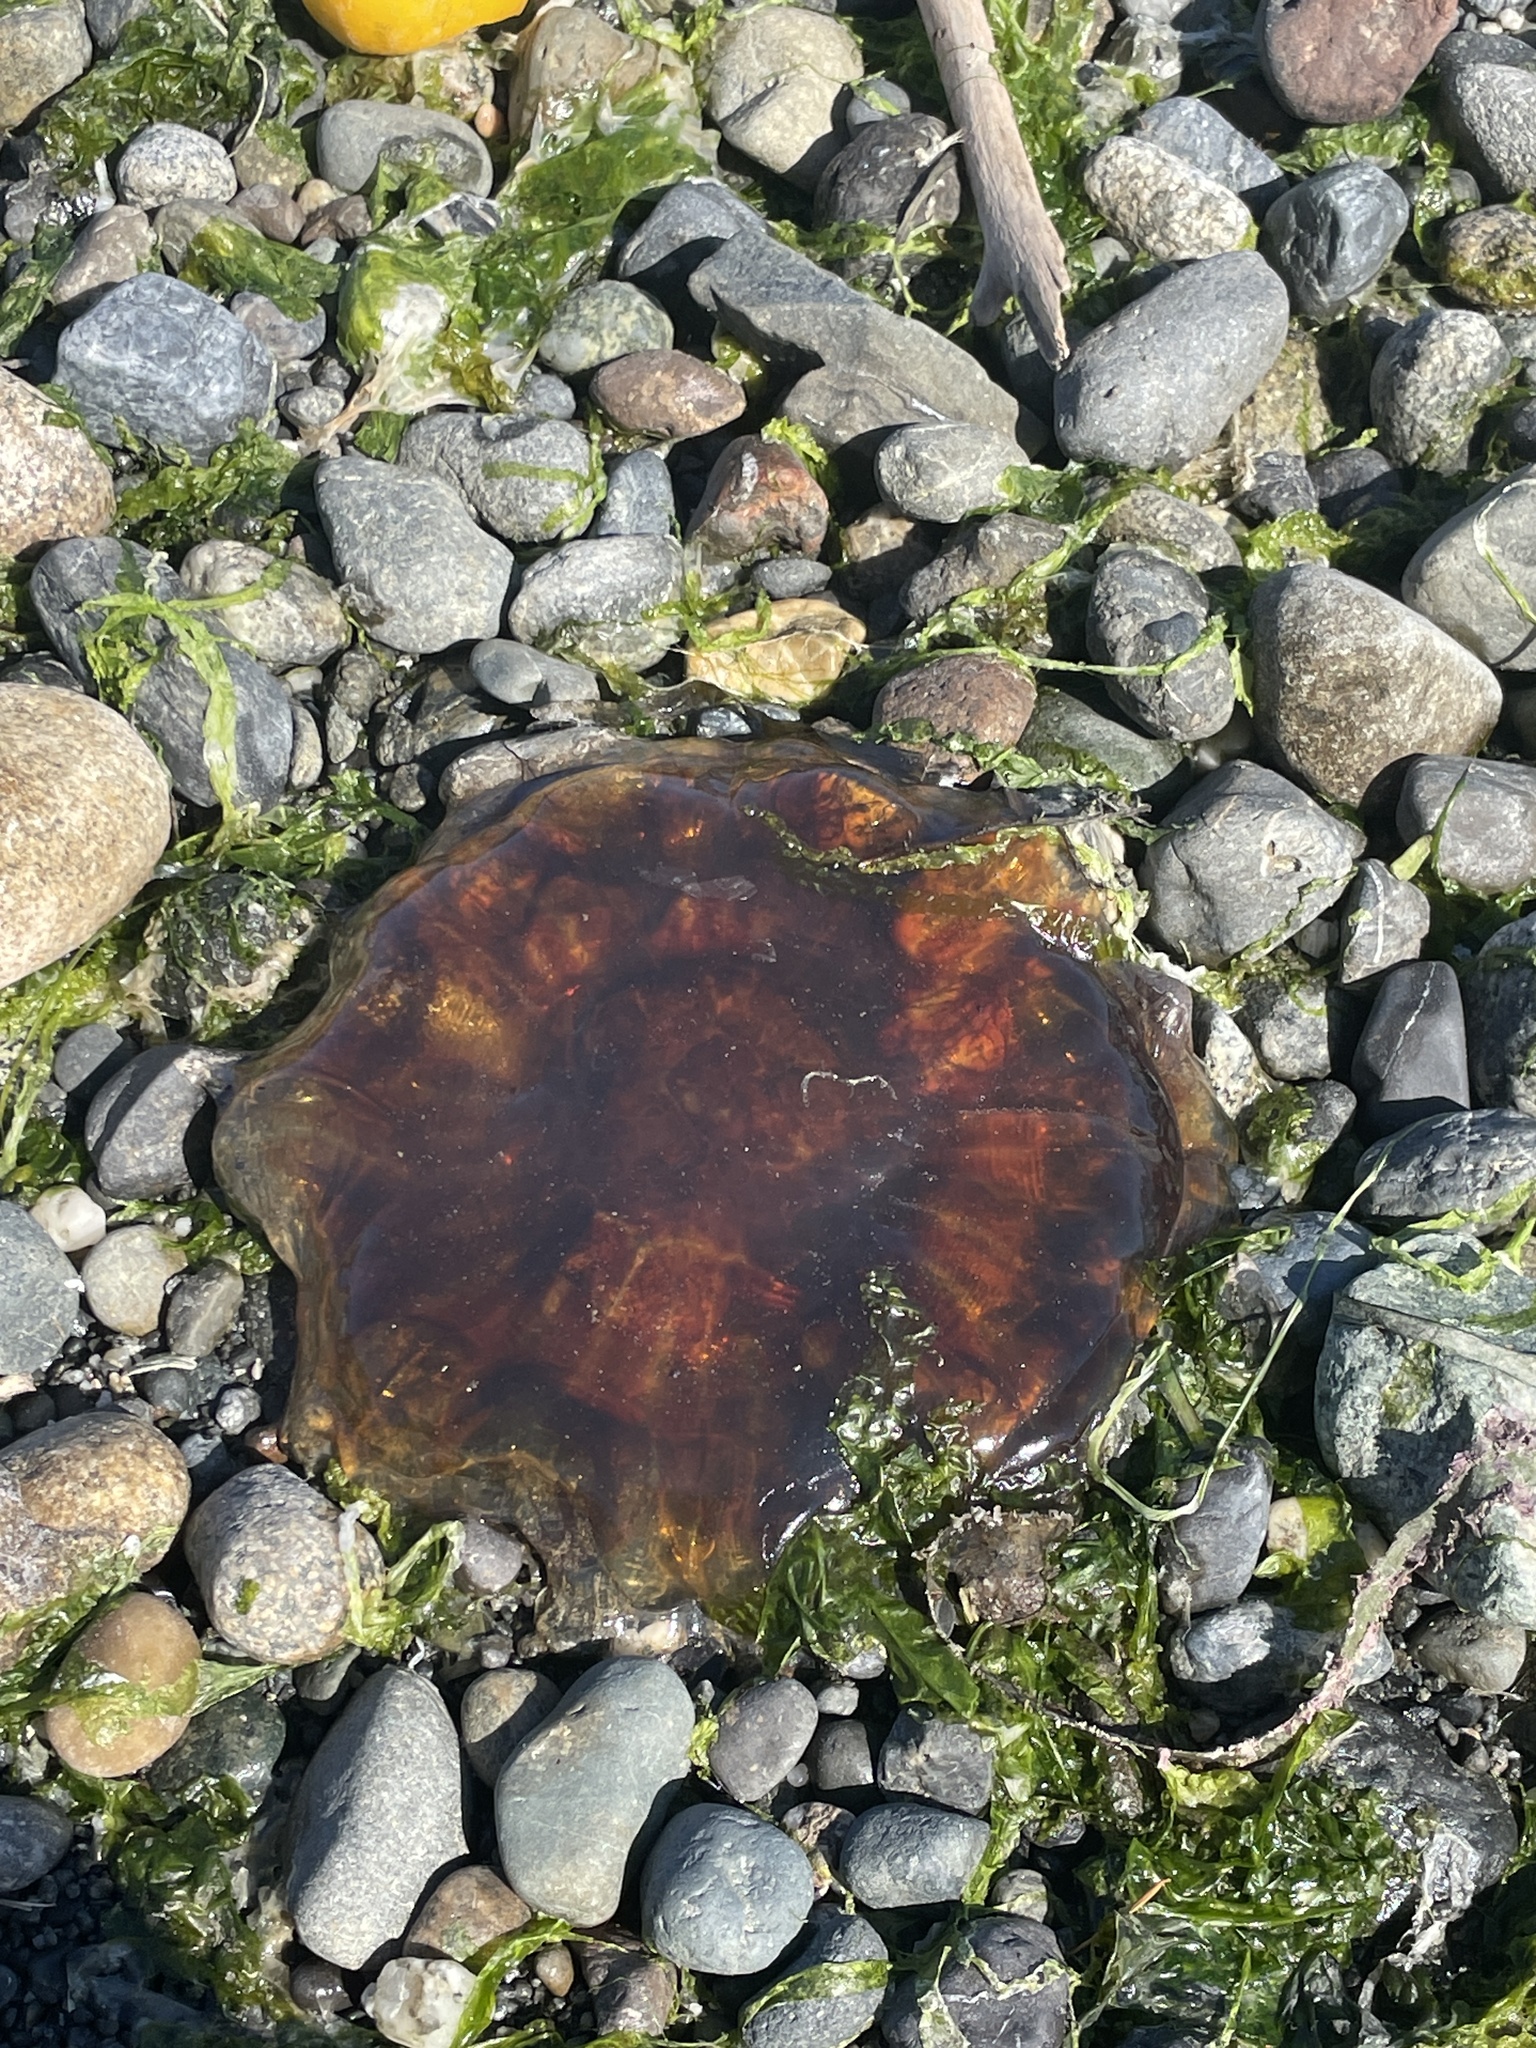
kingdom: Animalia
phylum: Cnidaria
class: Scyphozoa
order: Semaeostomeae
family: Cyaneidae
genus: Cyanea
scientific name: Cyanea ferruginea
